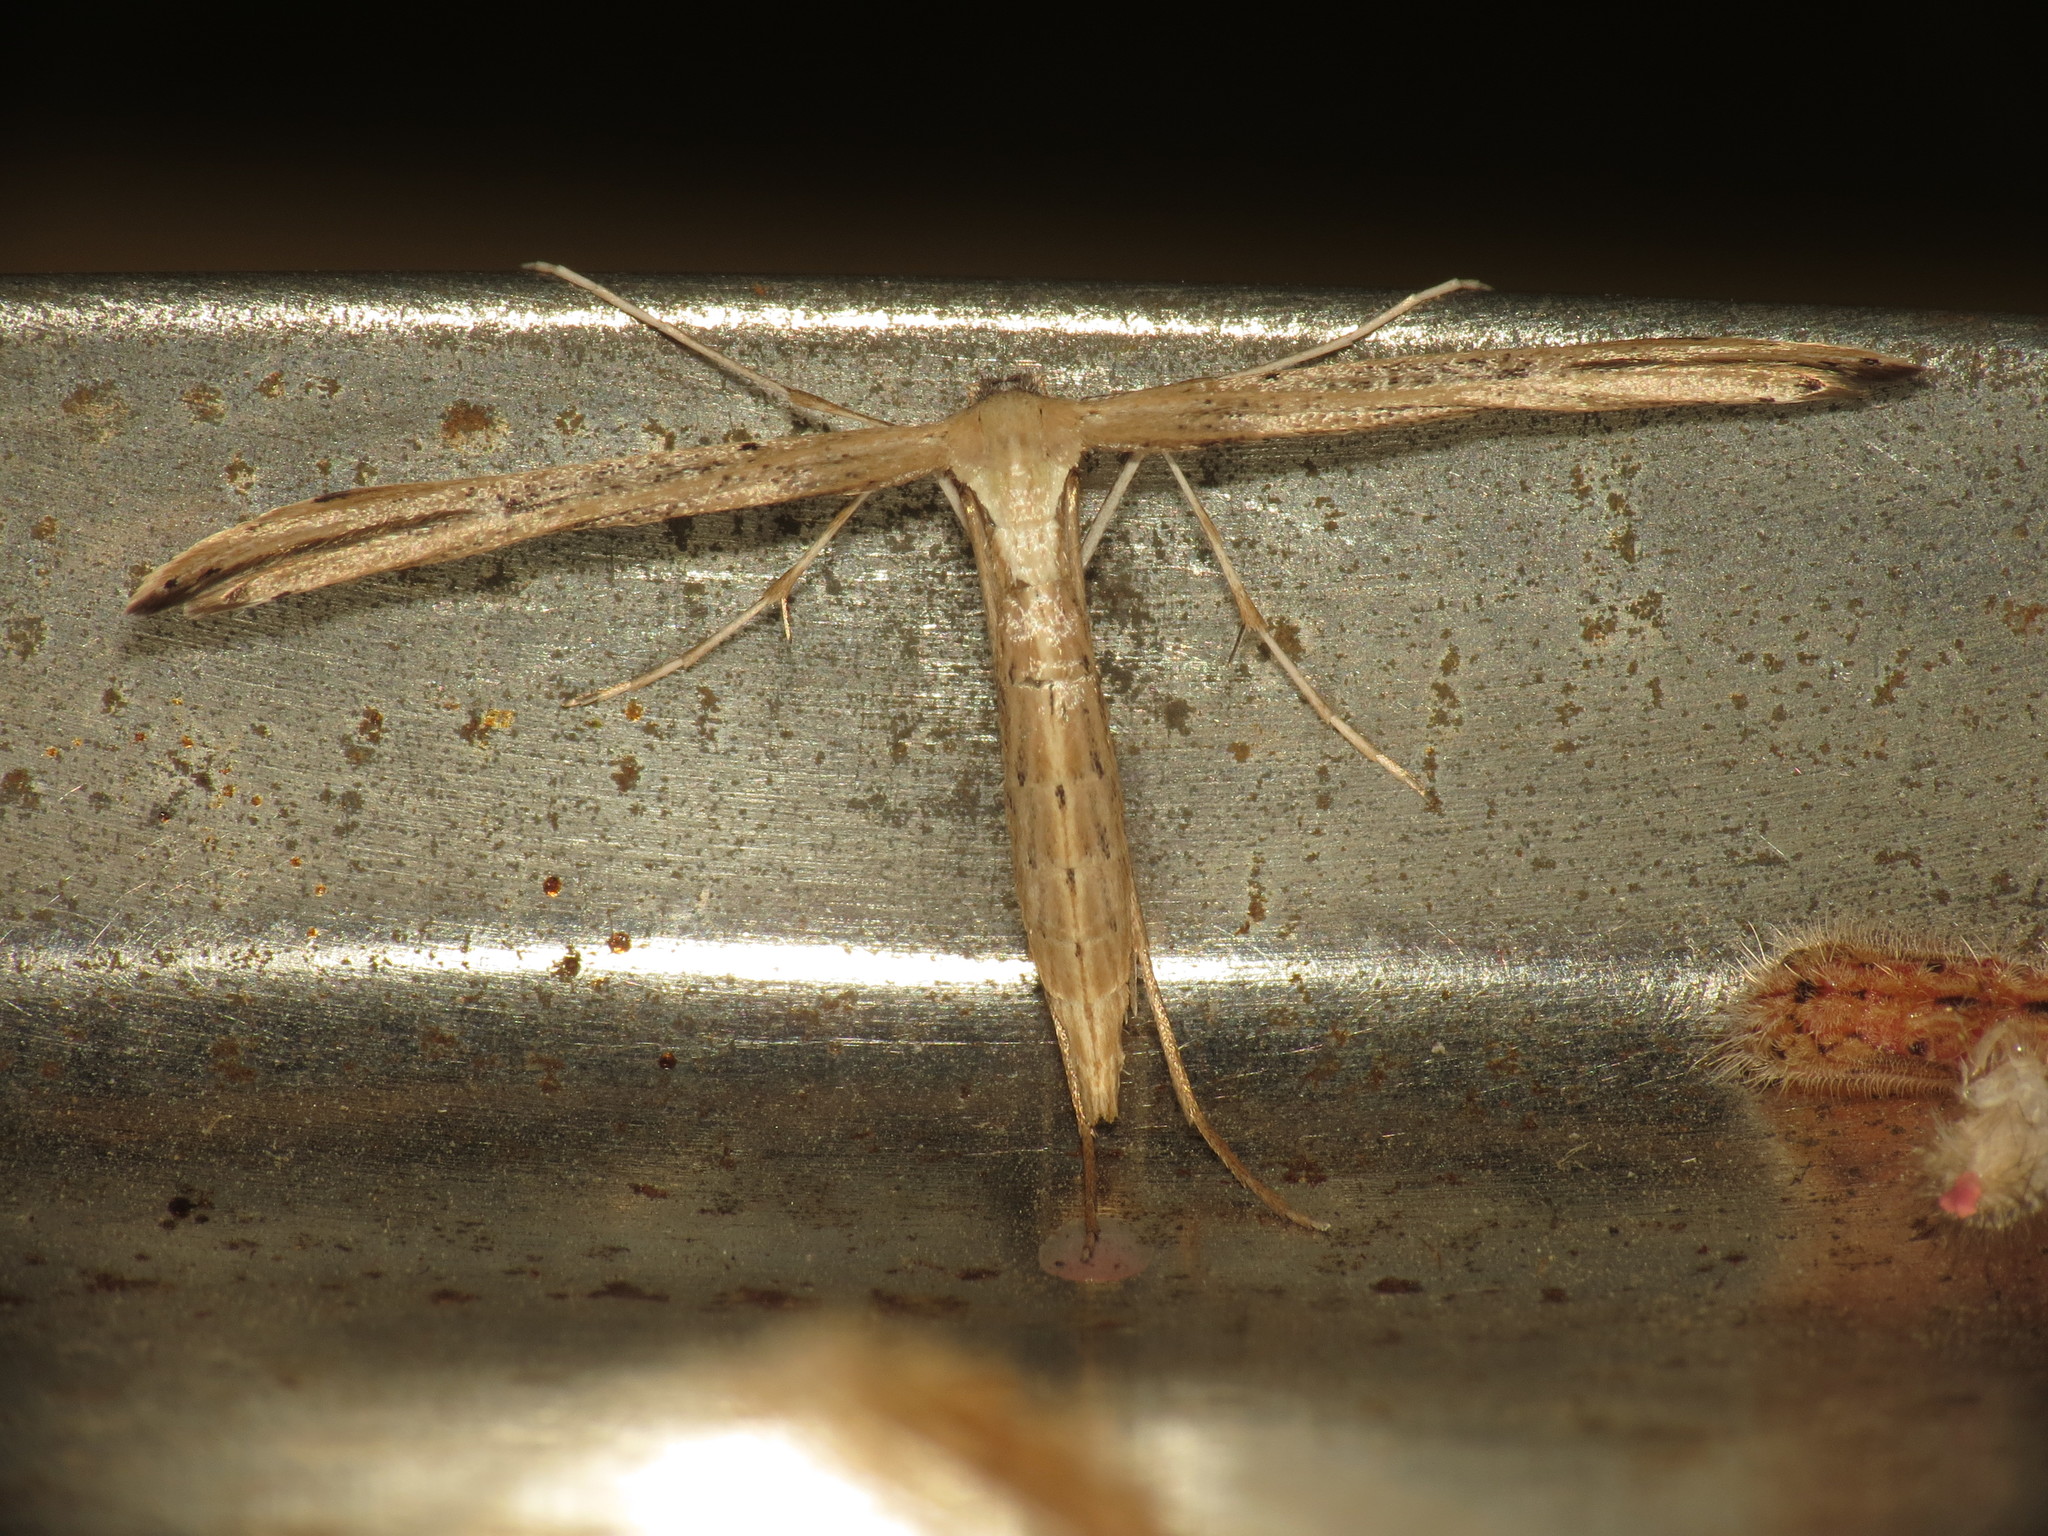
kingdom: Animalia
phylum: Arthropoda
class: Insecta
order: Lepidoptera
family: Pterophoridae
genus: Emmelina
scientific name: Emmelina monodactyla
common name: Common plume
